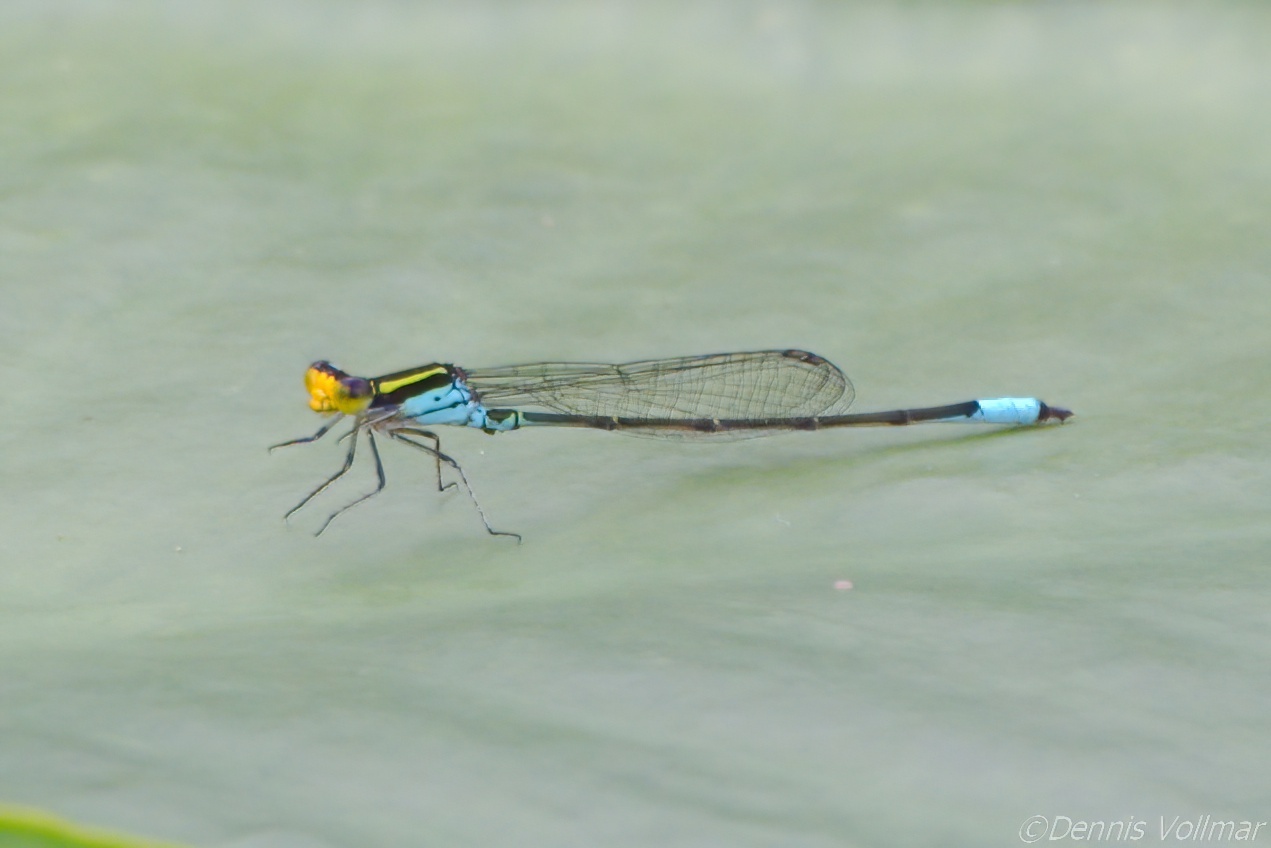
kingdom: Animalia
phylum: Arthropoda
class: Insecta
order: Odonata
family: Coenagrionidae
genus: Neoerythromma
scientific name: Neoerythromma cultellatum
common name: Caribbean yellowface
